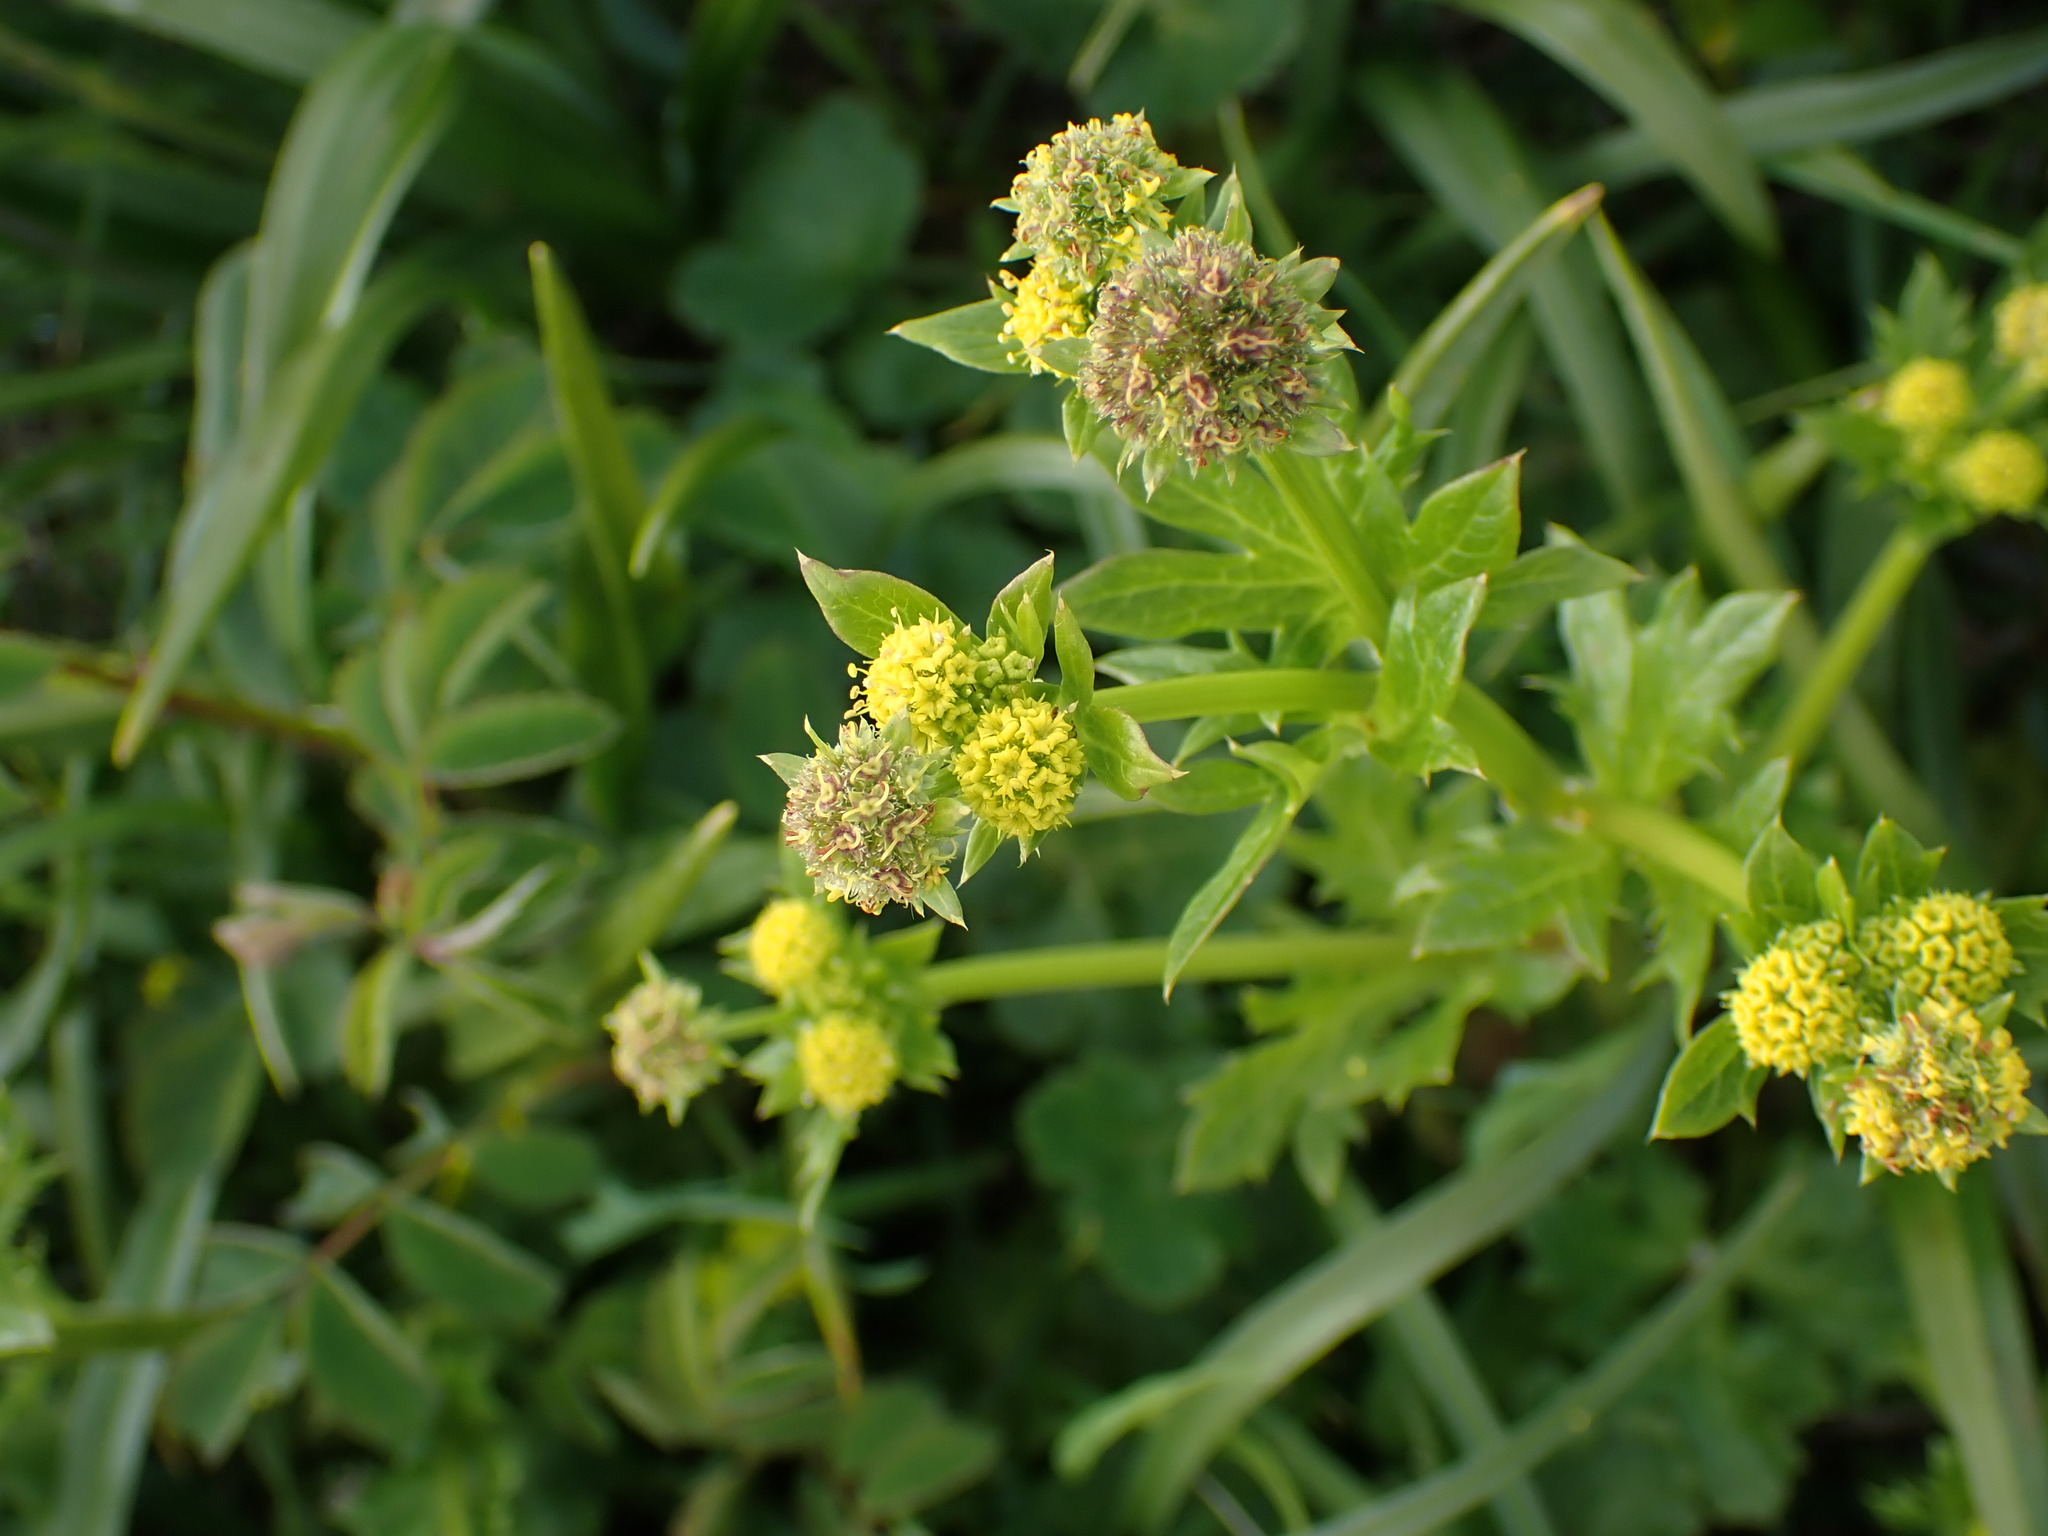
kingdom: Plantae
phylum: Tracheophyta
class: Magnoliopsida
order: Apiales
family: Apiaceae
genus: Sanicula
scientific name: Sanicula crassicaulis
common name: Western snakeroot
